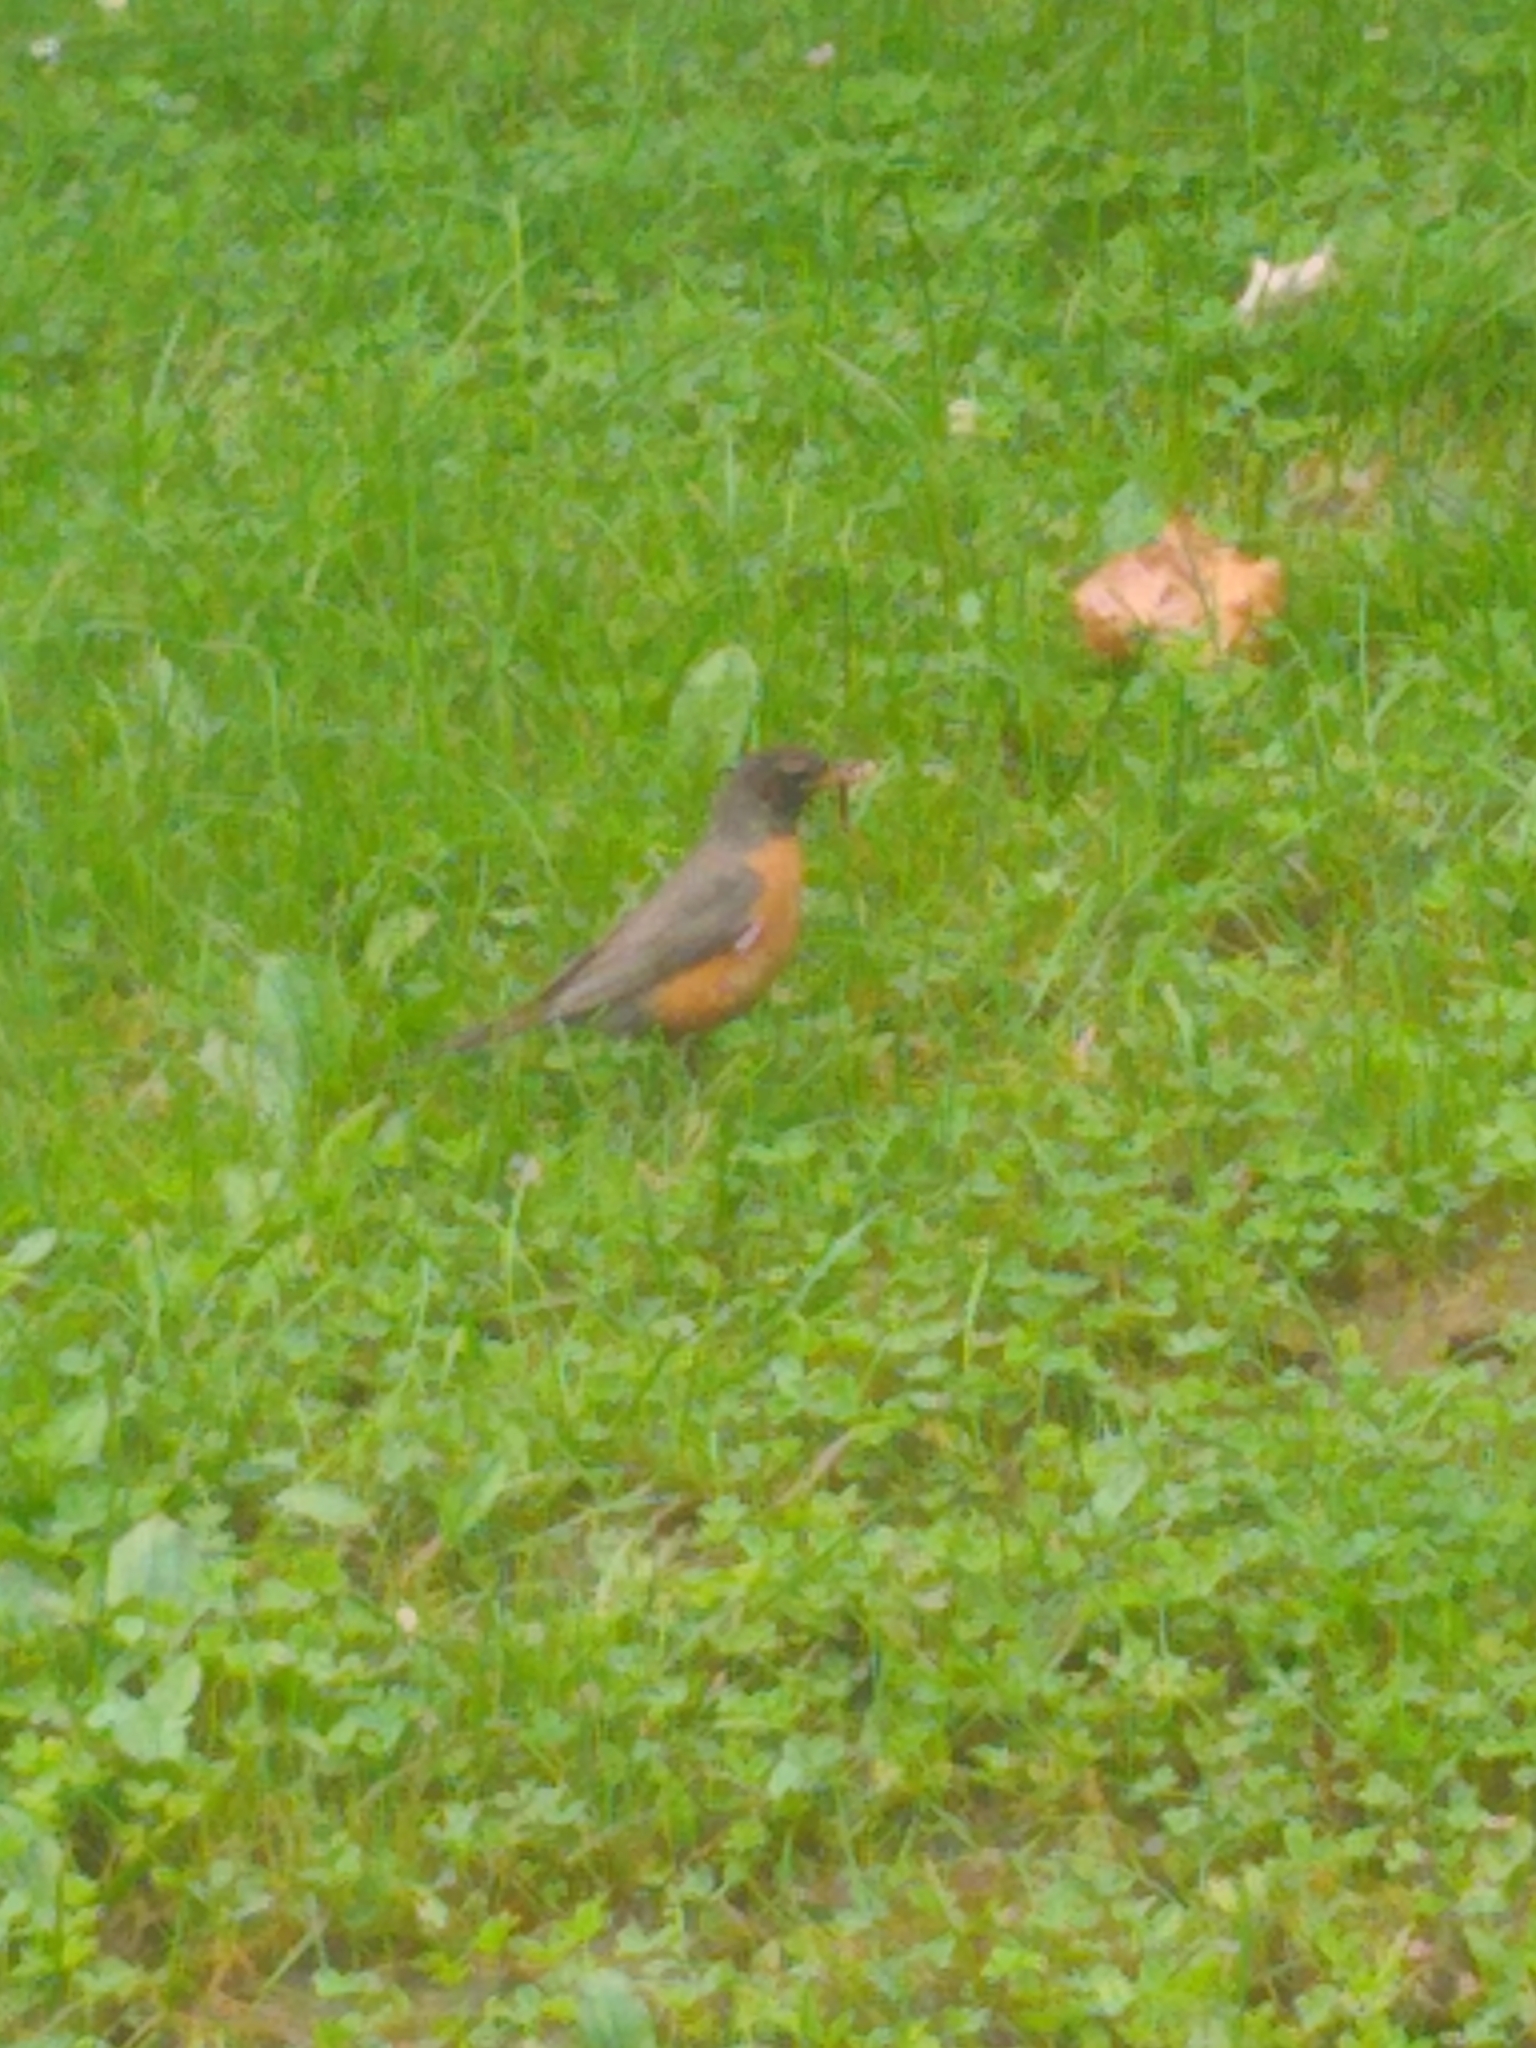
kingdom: Animalia
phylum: Chordata
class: Aves
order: Passeriformes
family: Turdidae
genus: Turdus
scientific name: Turdus migratorius
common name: American robin
